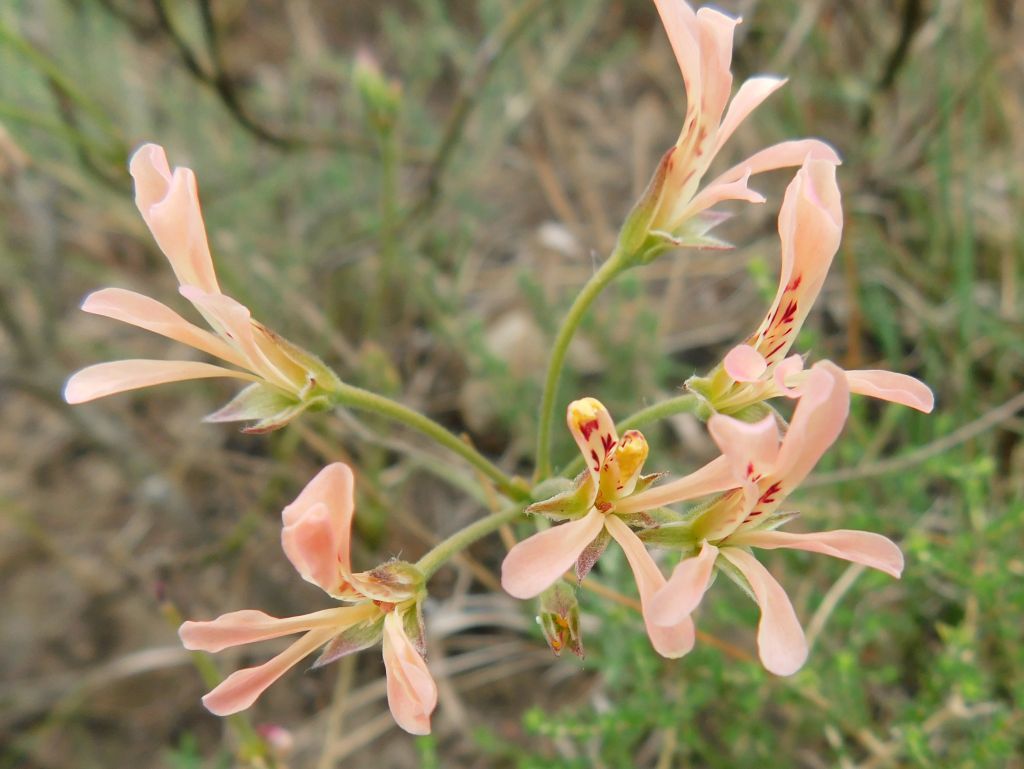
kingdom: Plantae
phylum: Tracheophyta
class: Magnoliopsida
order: Geraniales
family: Geraniaceae
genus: Pelargonium
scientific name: Pelargonium pinnatum
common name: Pinnated pelargonium
